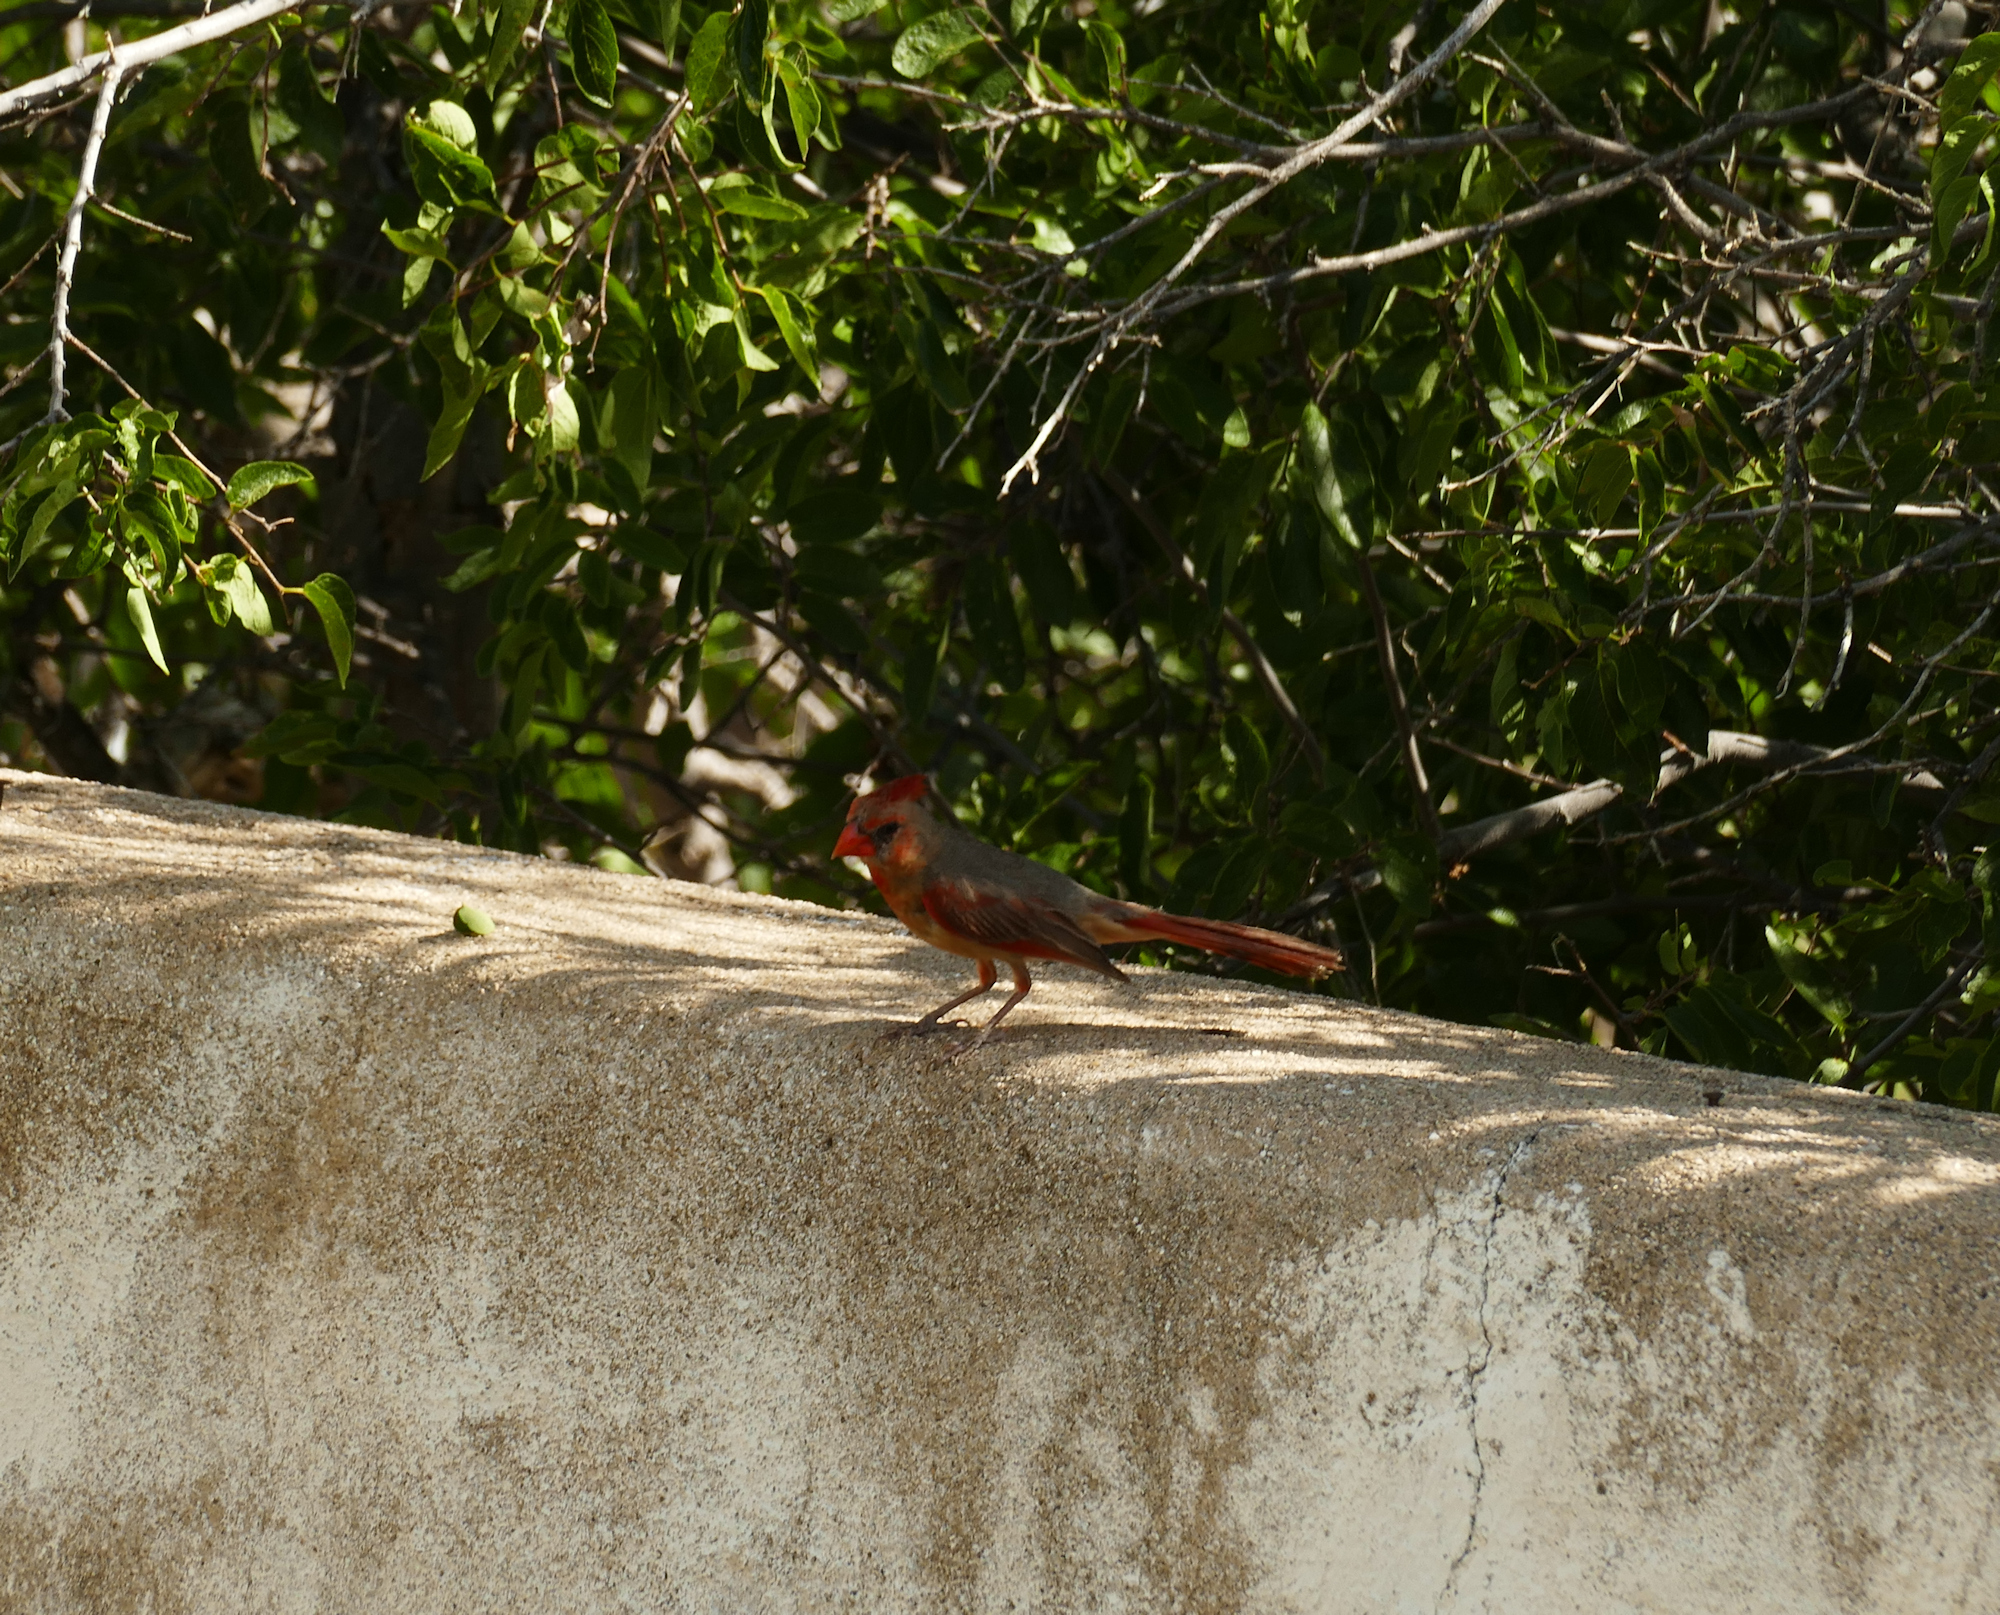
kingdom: Animalia
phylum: Chordata
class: Aves
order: Passeriformes
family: Cardinalidae
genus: Cardinalis
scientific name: Cardinalis cardinalis
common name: Northern cardinal
